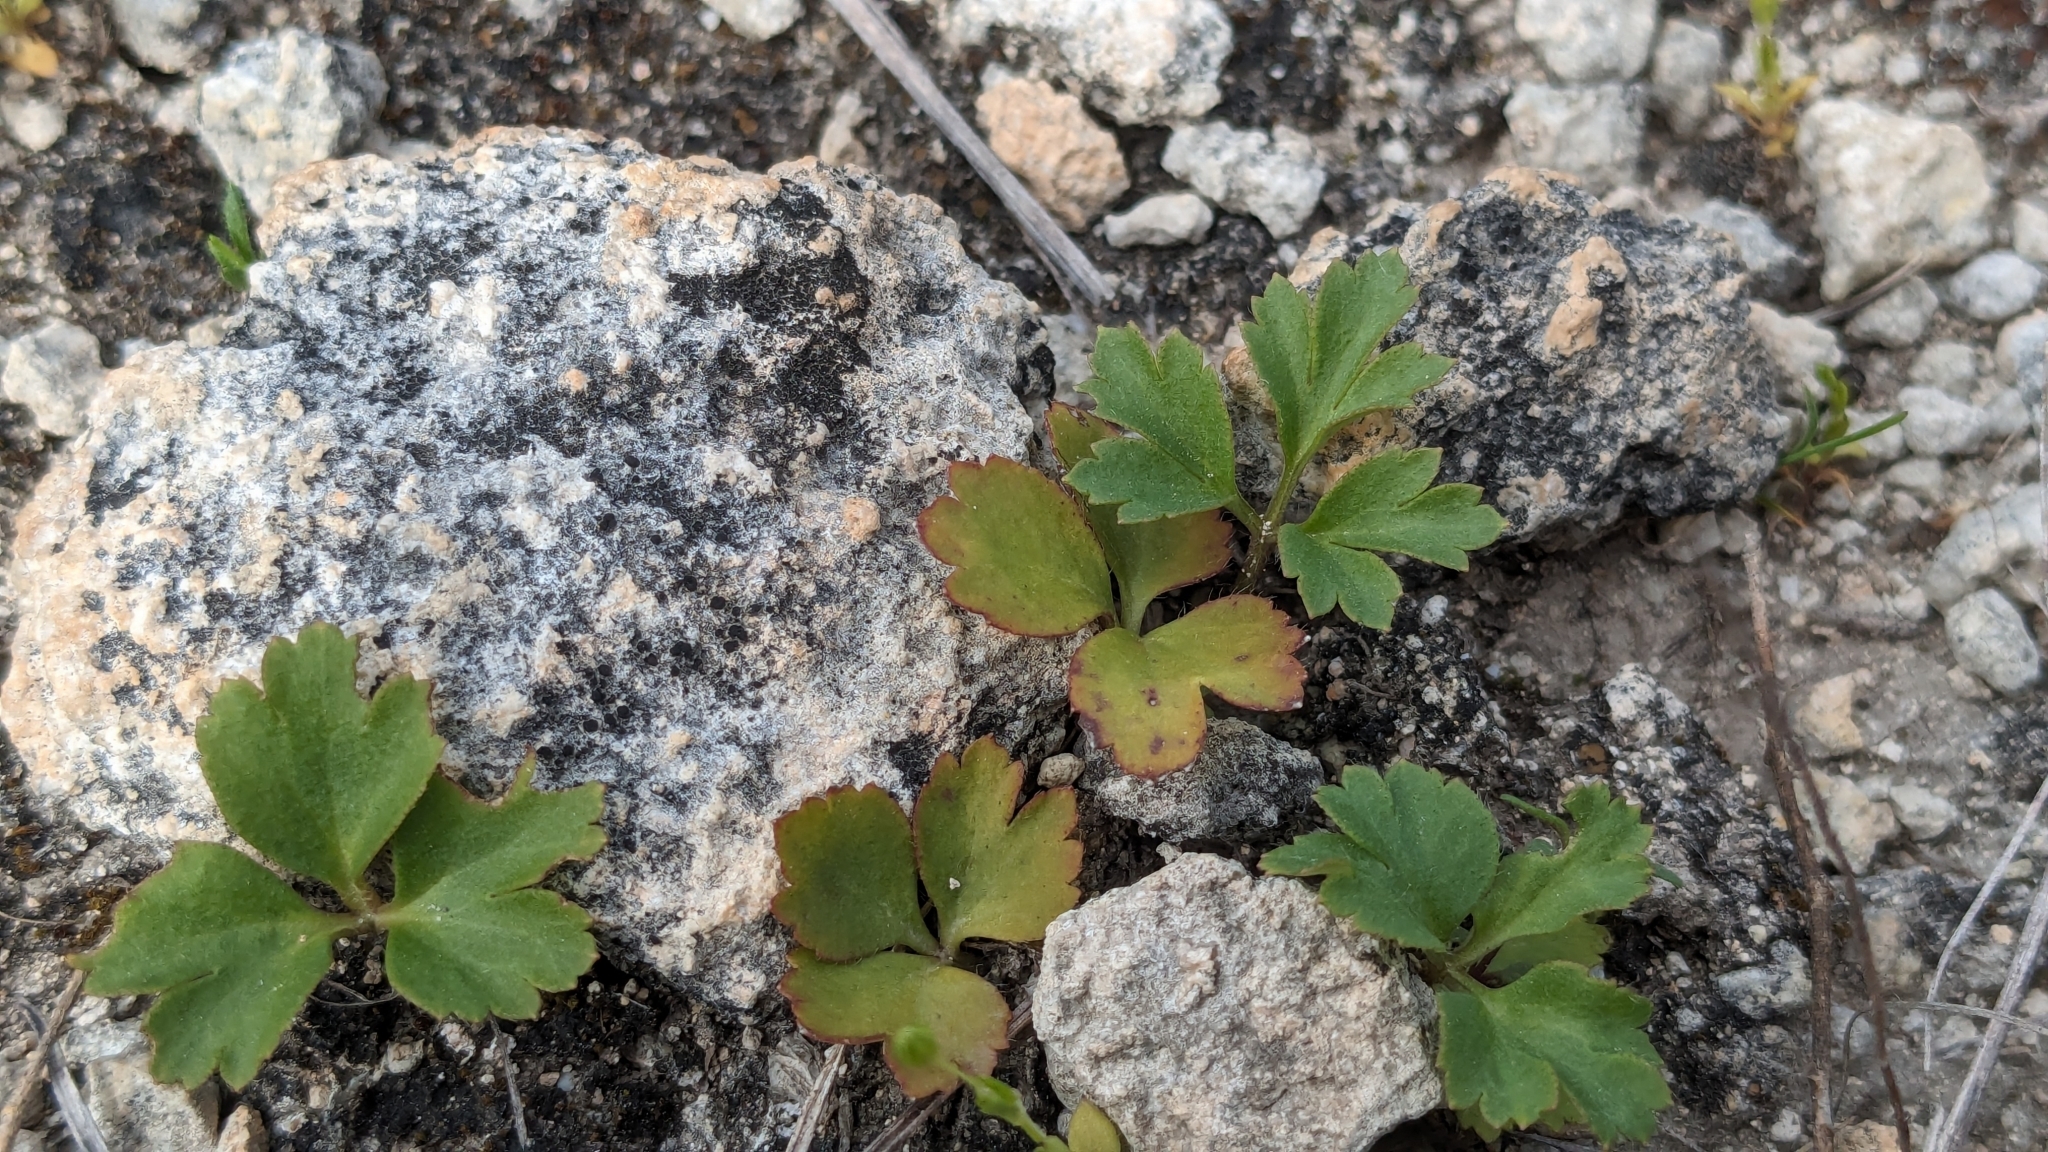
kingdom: Plantae
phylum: Tracheophyta
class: Magnoliopsida
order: Ranunculales
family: Ranunculaceae
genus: Anemone
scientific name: Anemone berlandieri
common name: Ten-petal anemone
